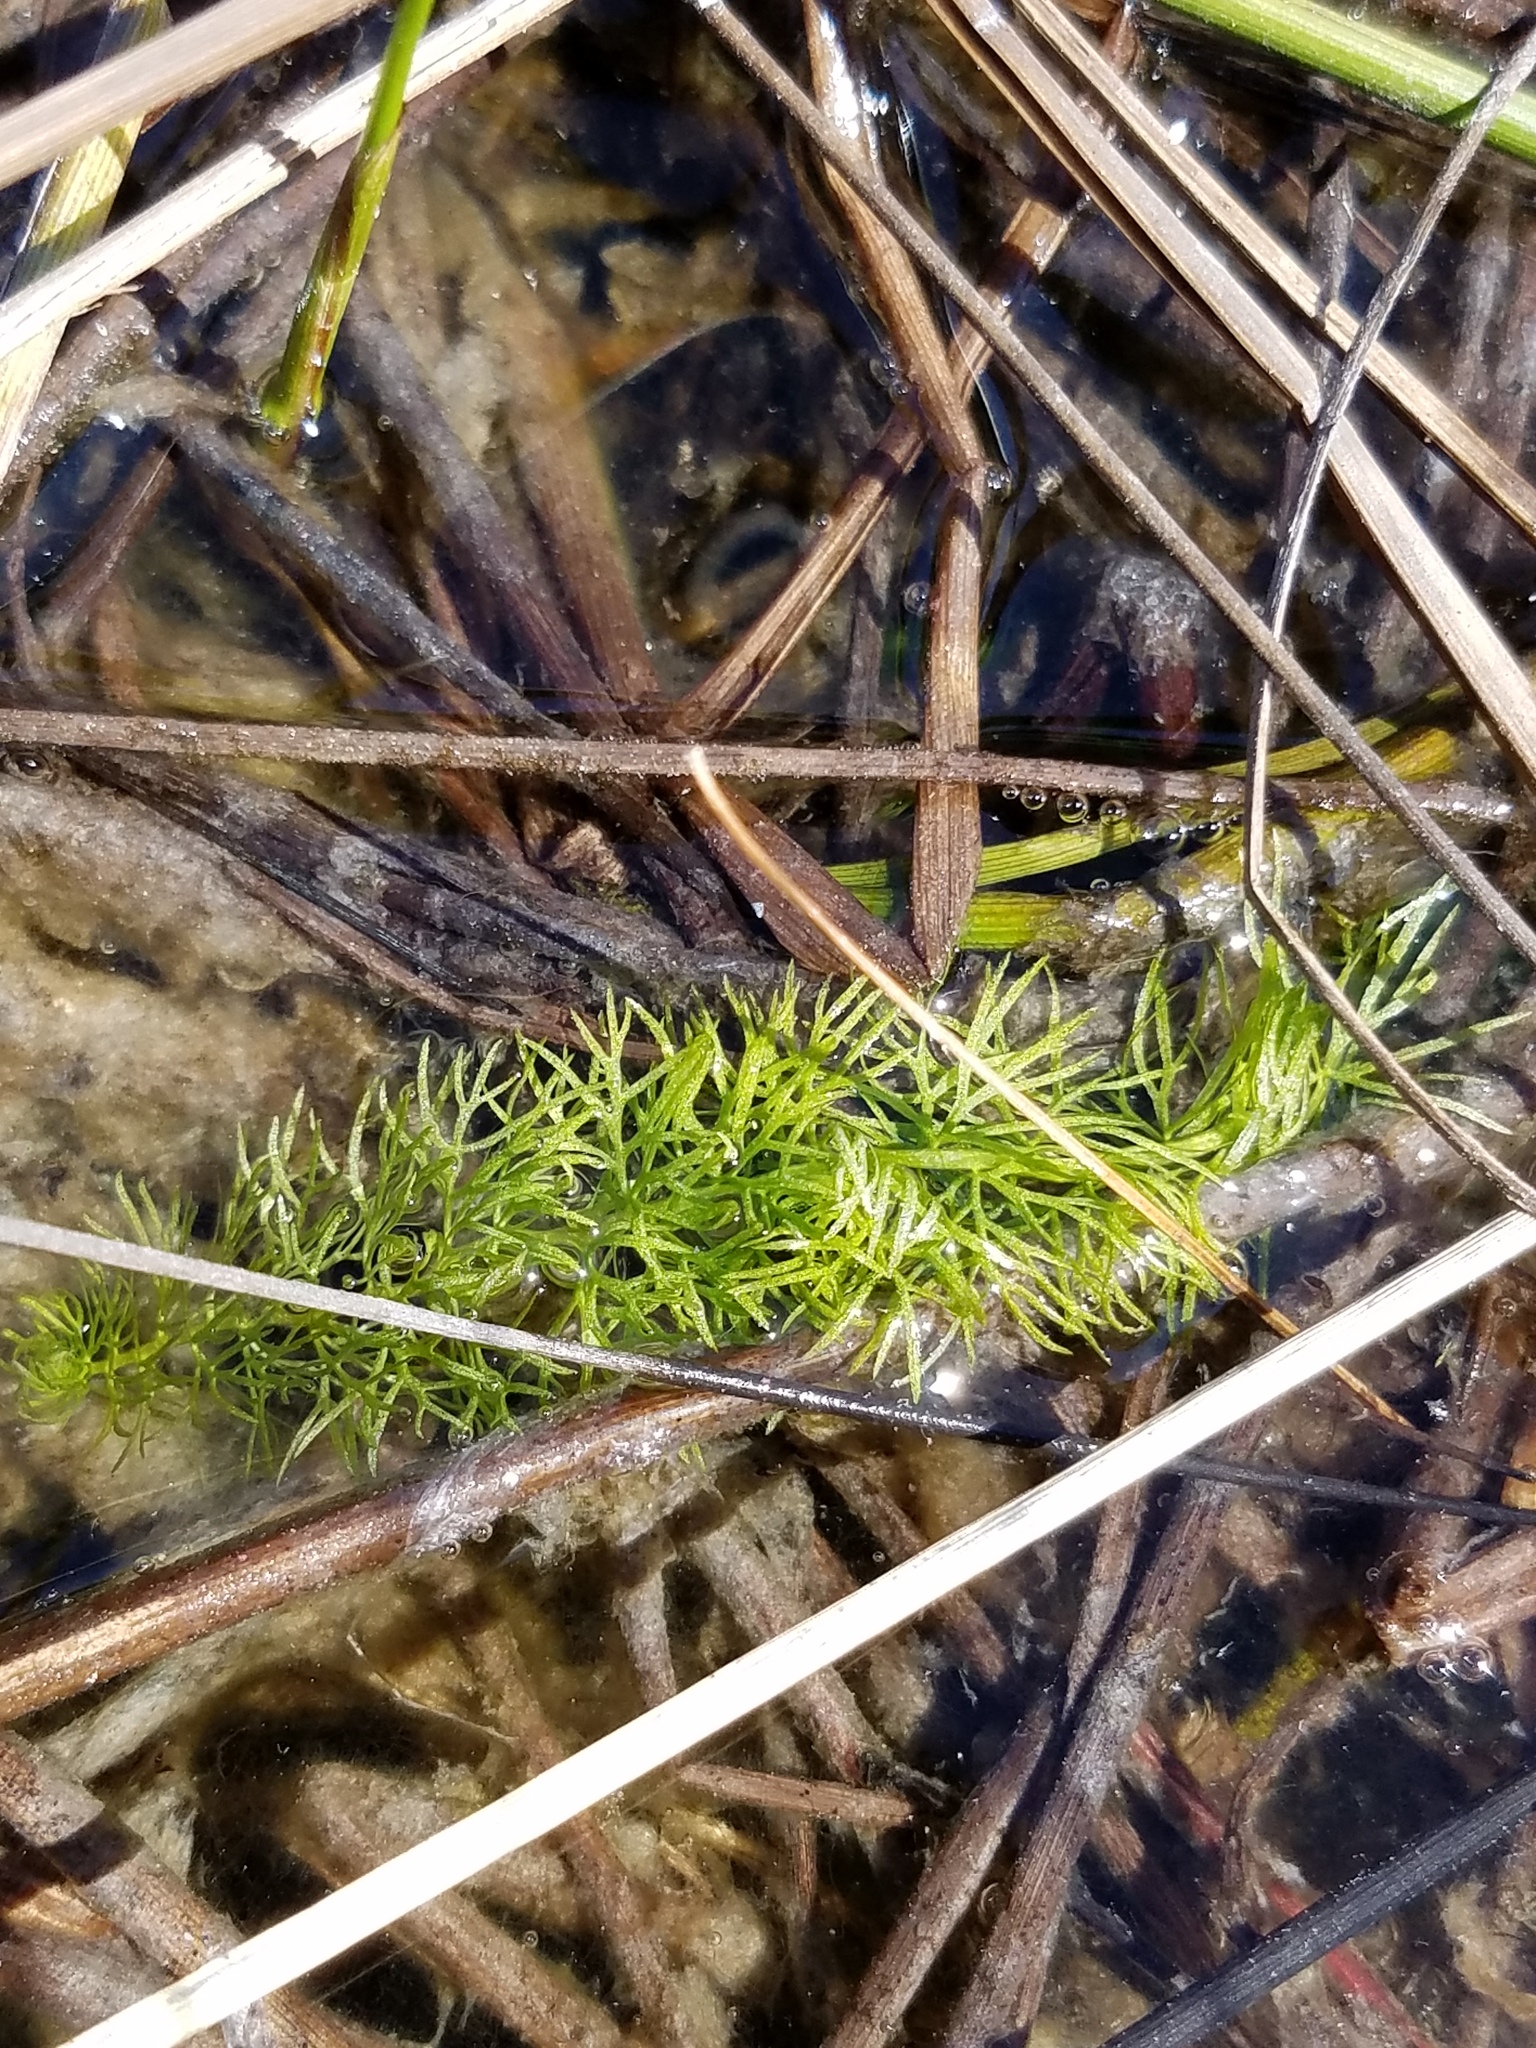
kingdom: Plantae
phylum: Tracheophyta
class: Magnoliopsida
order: Lamiales
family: Lentibulariaceae
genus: Utricularia
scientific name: Utricularia intermedia
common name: Intermediate bladderwort
